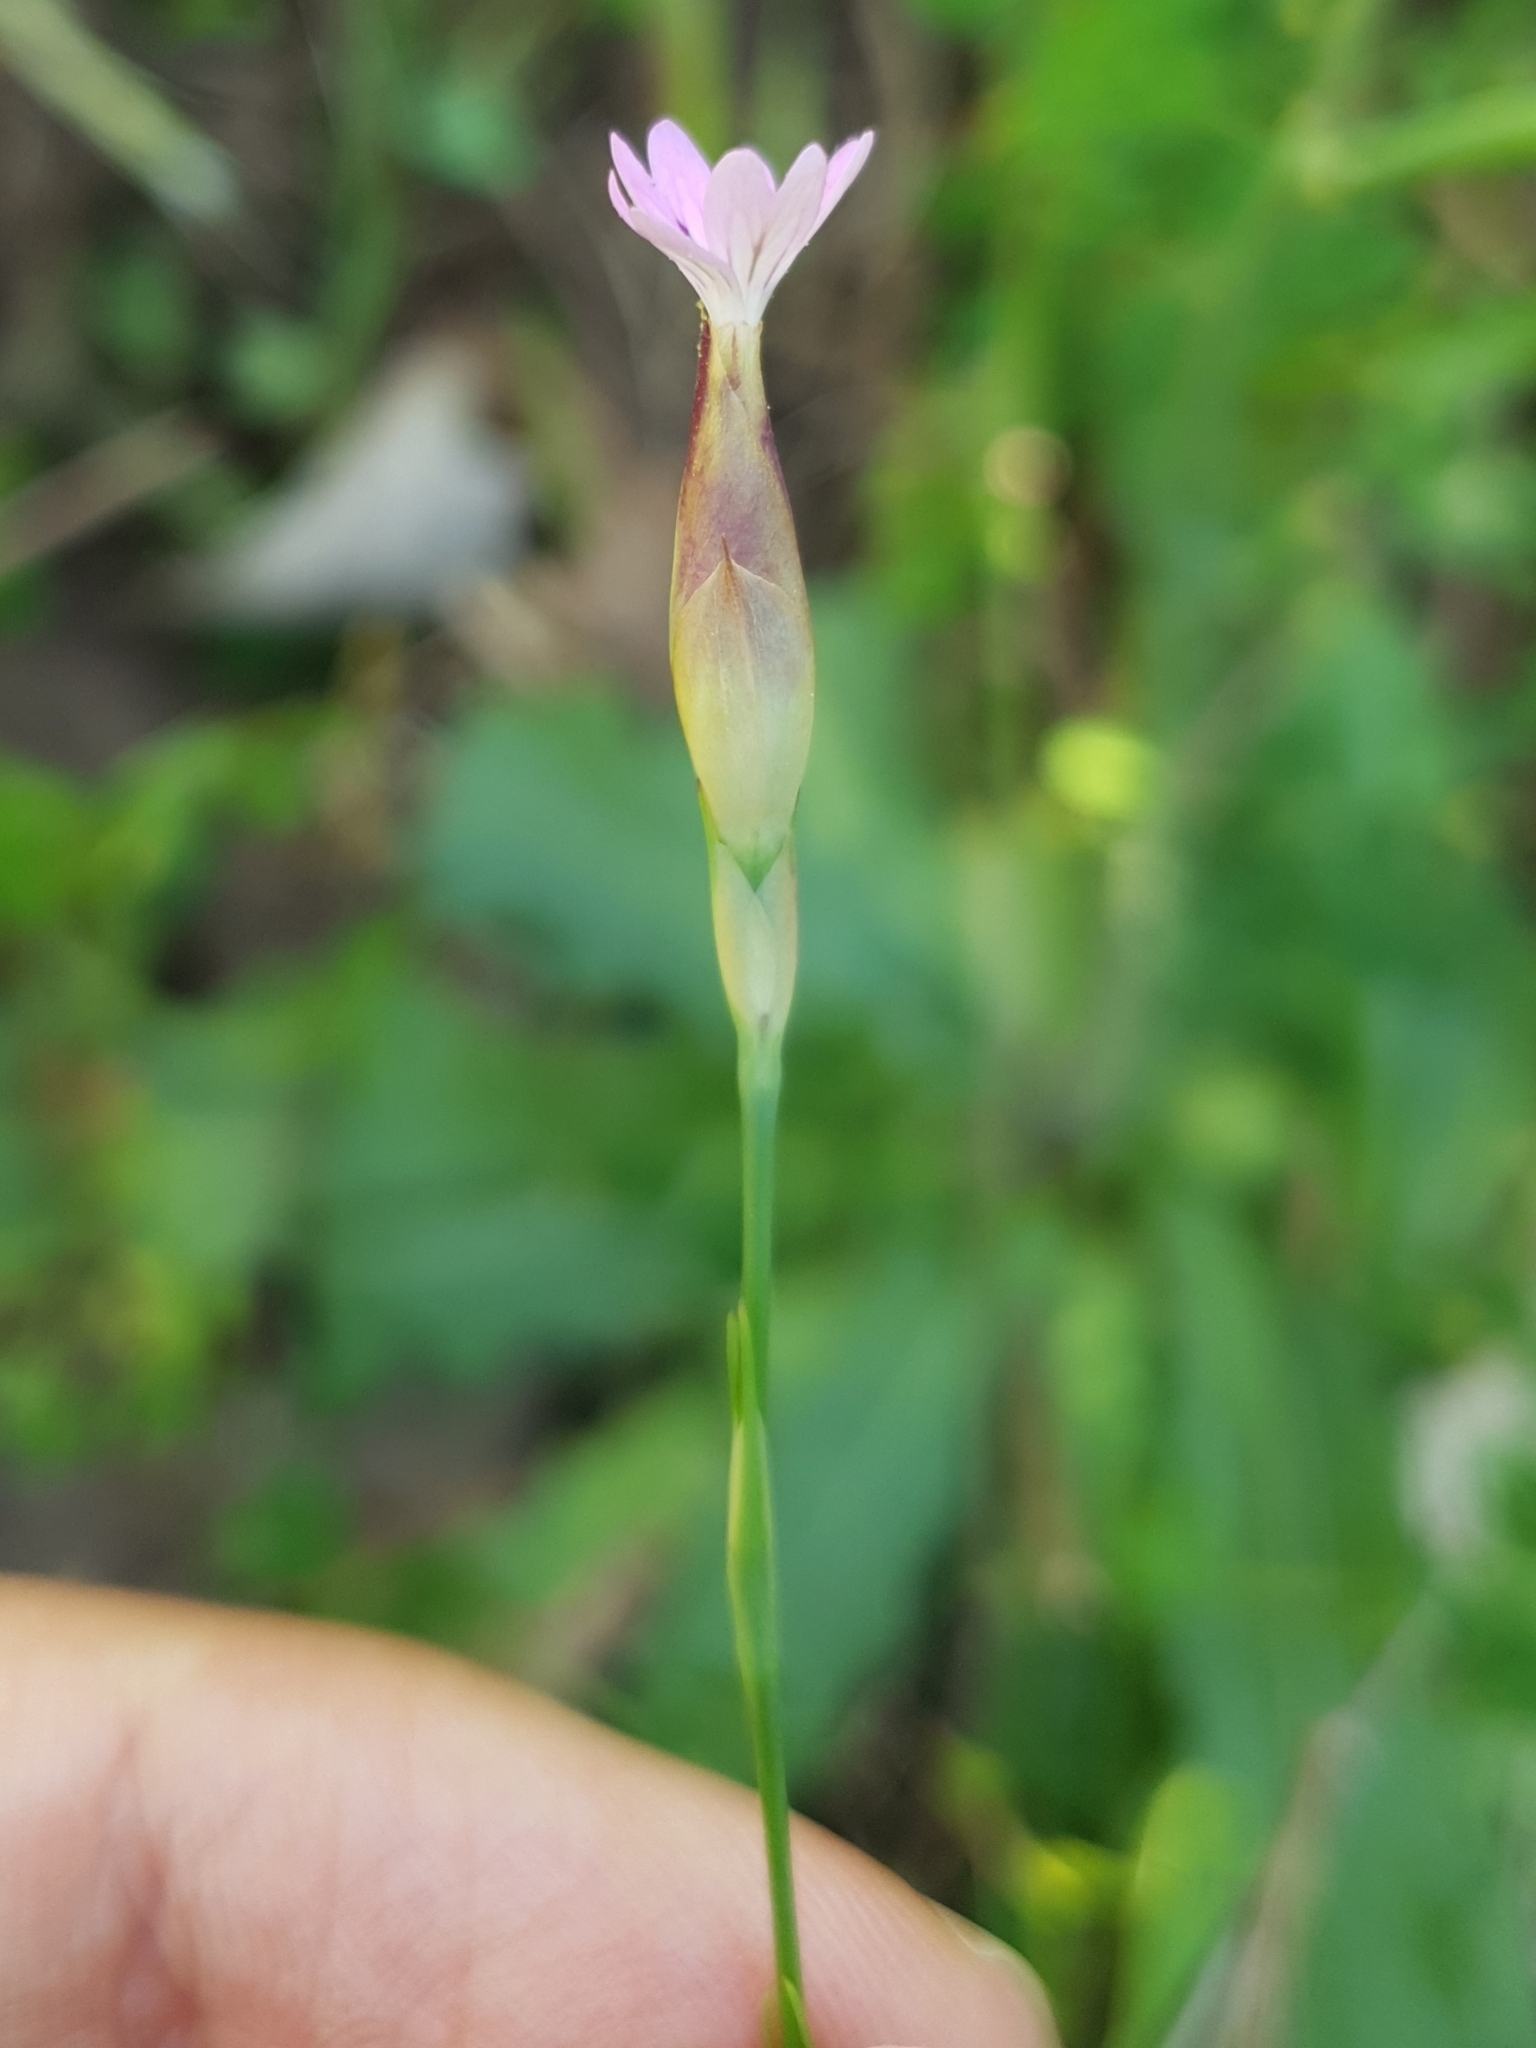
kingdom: Plantae
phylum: Tracheophyta
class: Magnoliopsida
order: Caryophyllales
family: Caryophyllaceae
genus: Petrorhagia
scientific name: Petrorhagia dubia
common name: Hairypink
